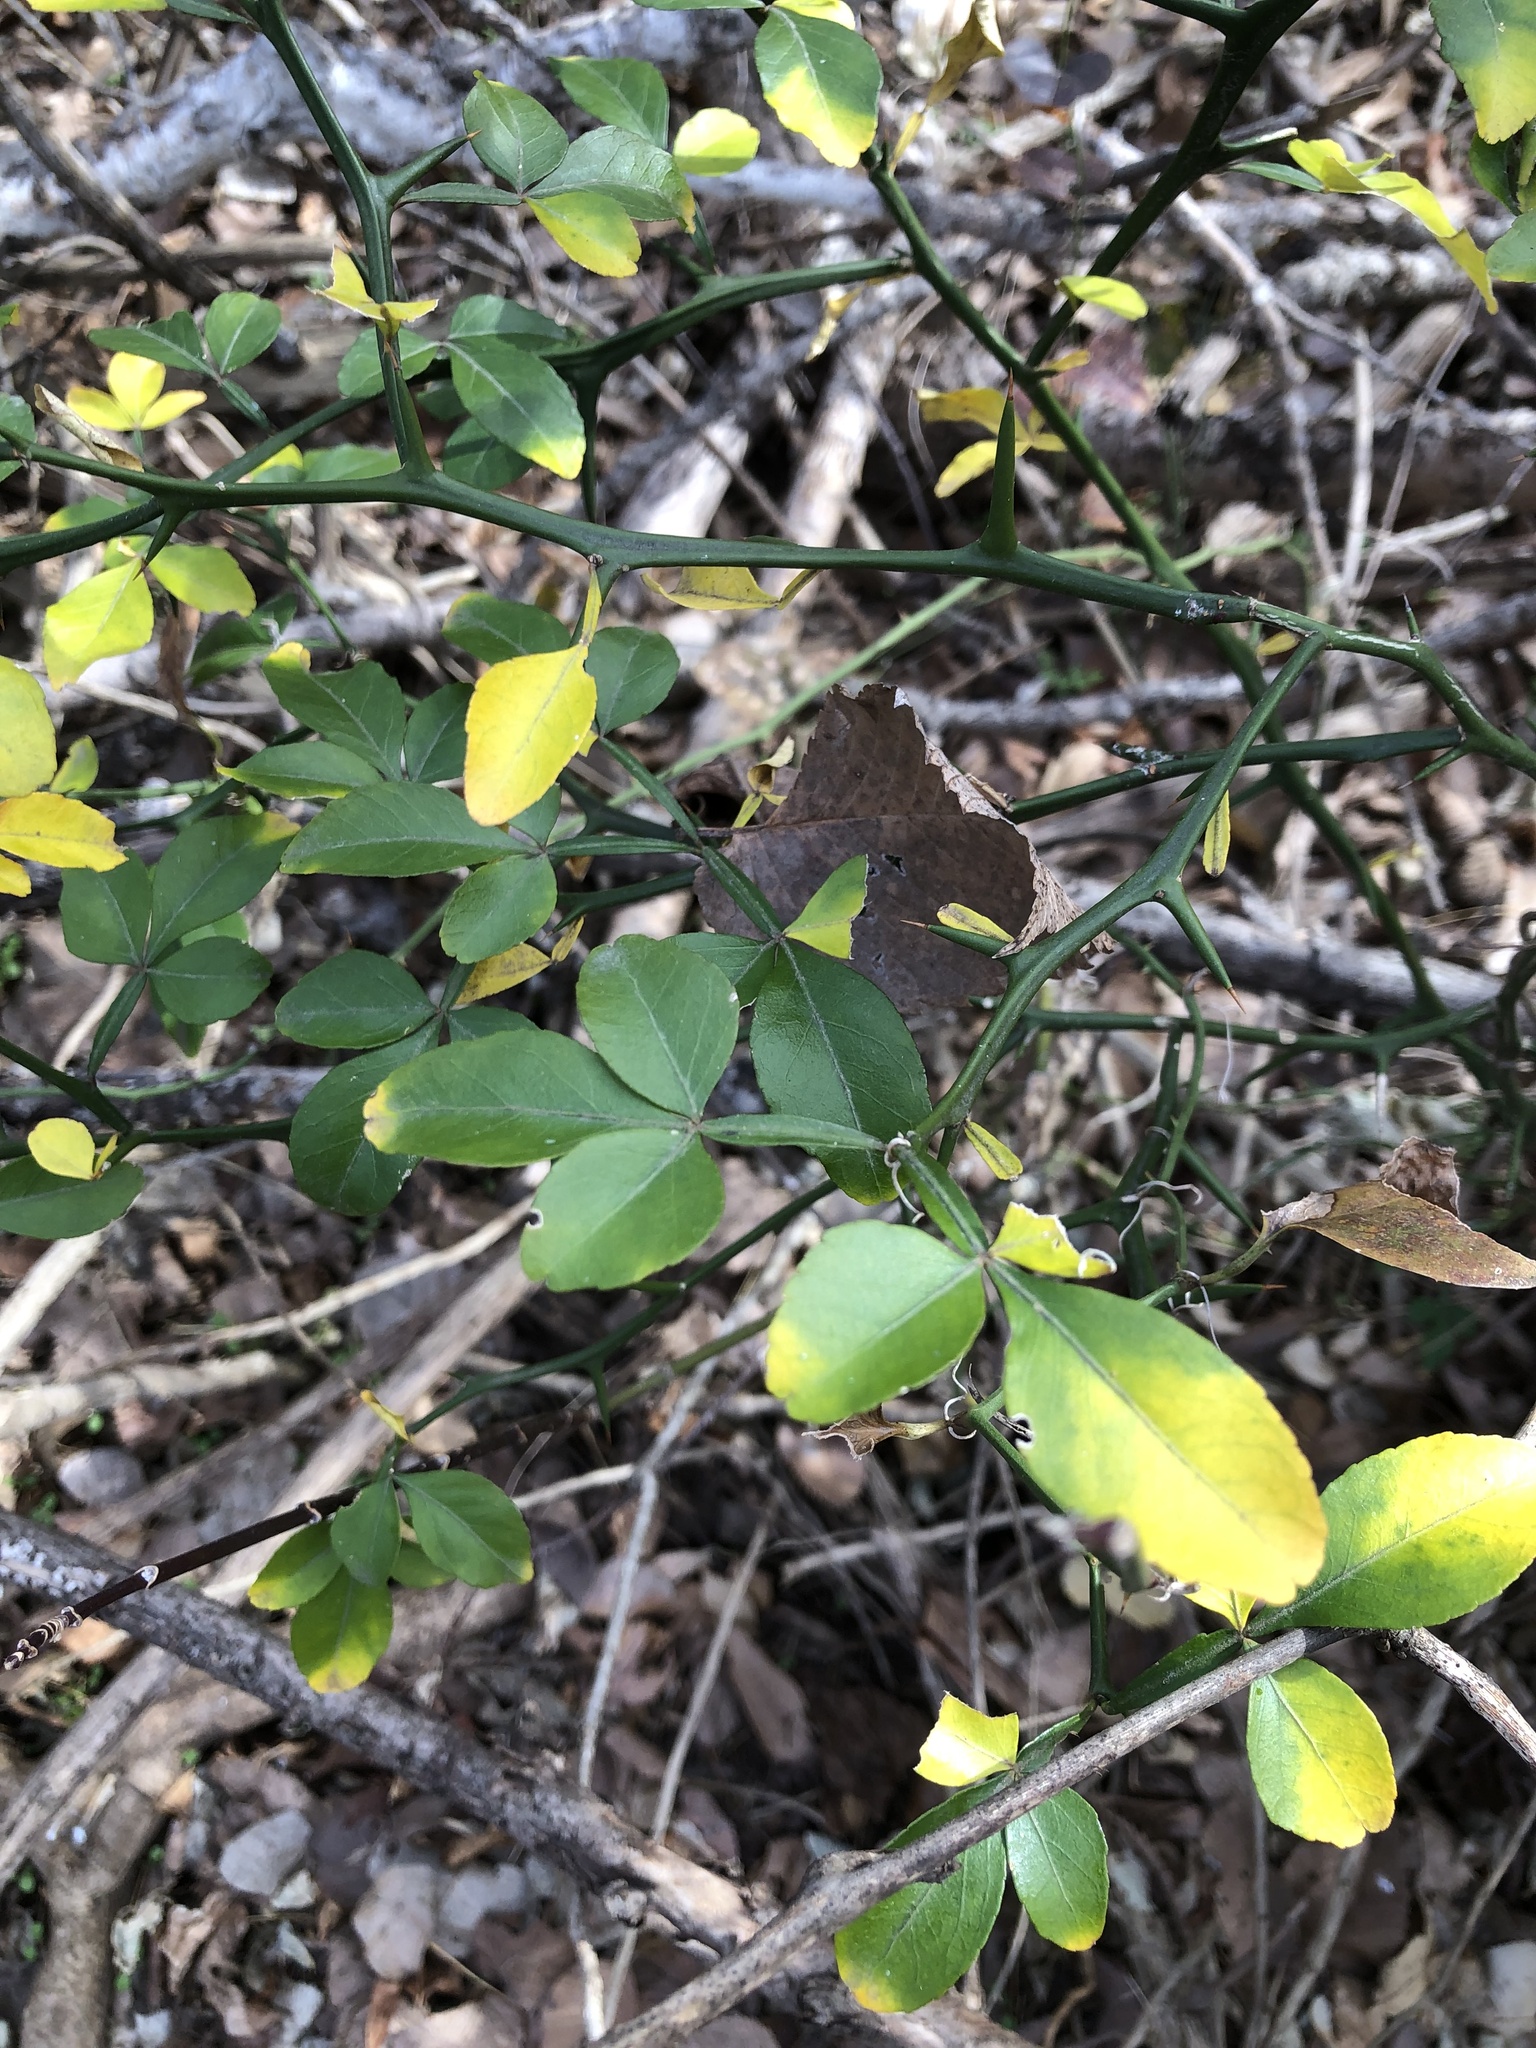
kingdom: Plantae
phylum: Tracheophyta
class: Magnoliopsida
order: Sapindales
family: Rutaceae
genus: Citrus
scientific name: Citrus trifoliata
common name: Japanese bitter-orange
